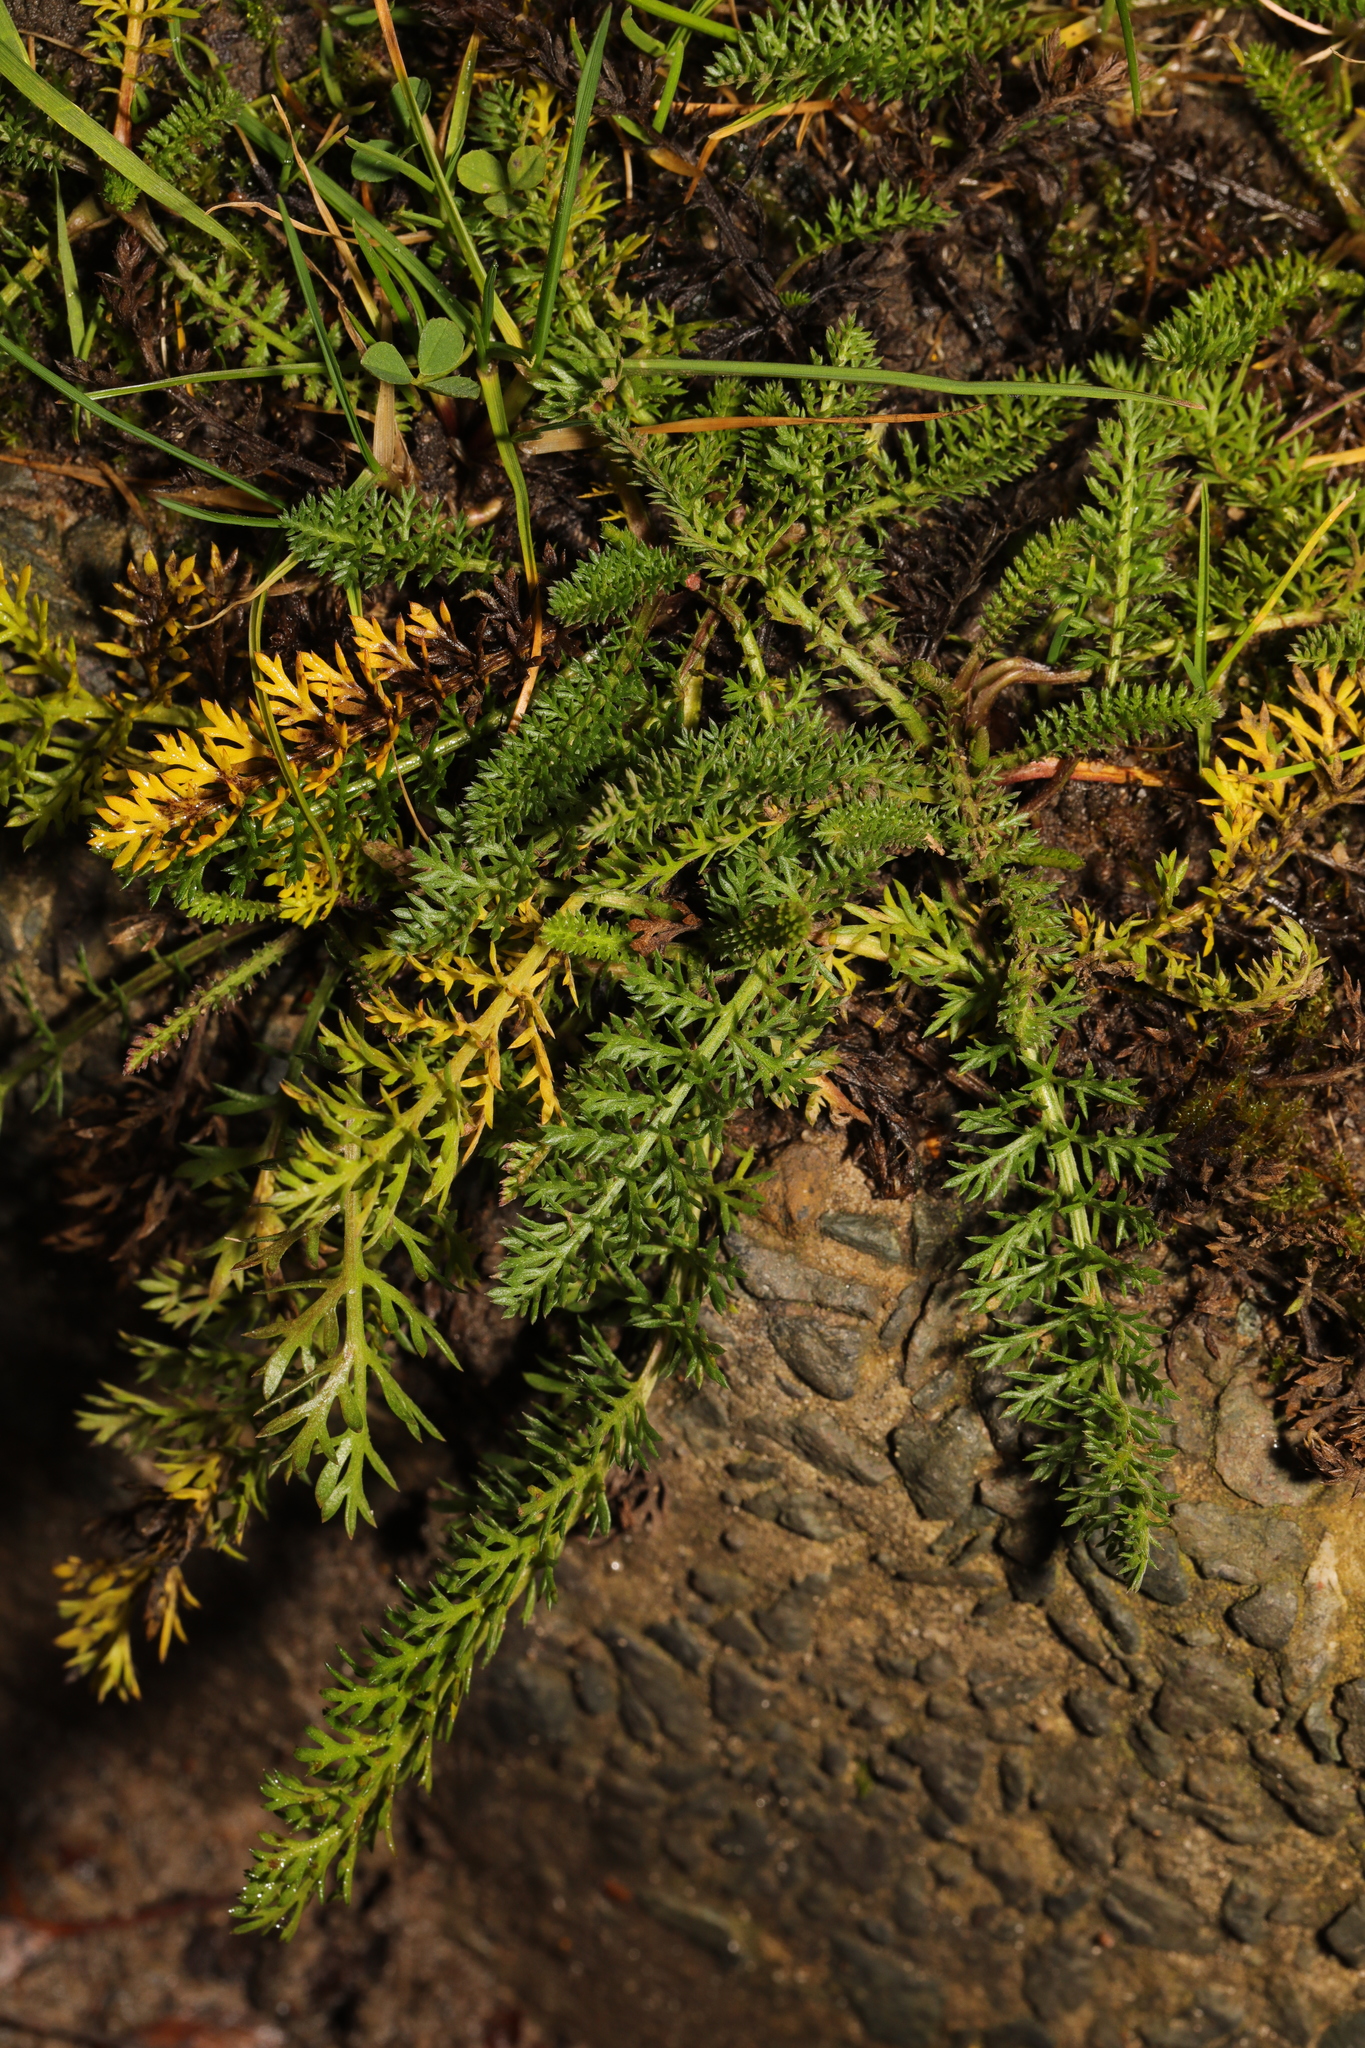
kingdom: Plantae
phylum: Tracheophyta
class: Magnoliopsida
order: Asterales
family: Asteraceae
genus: Achillea
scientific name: Achillea millefolium
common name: Yarrow
